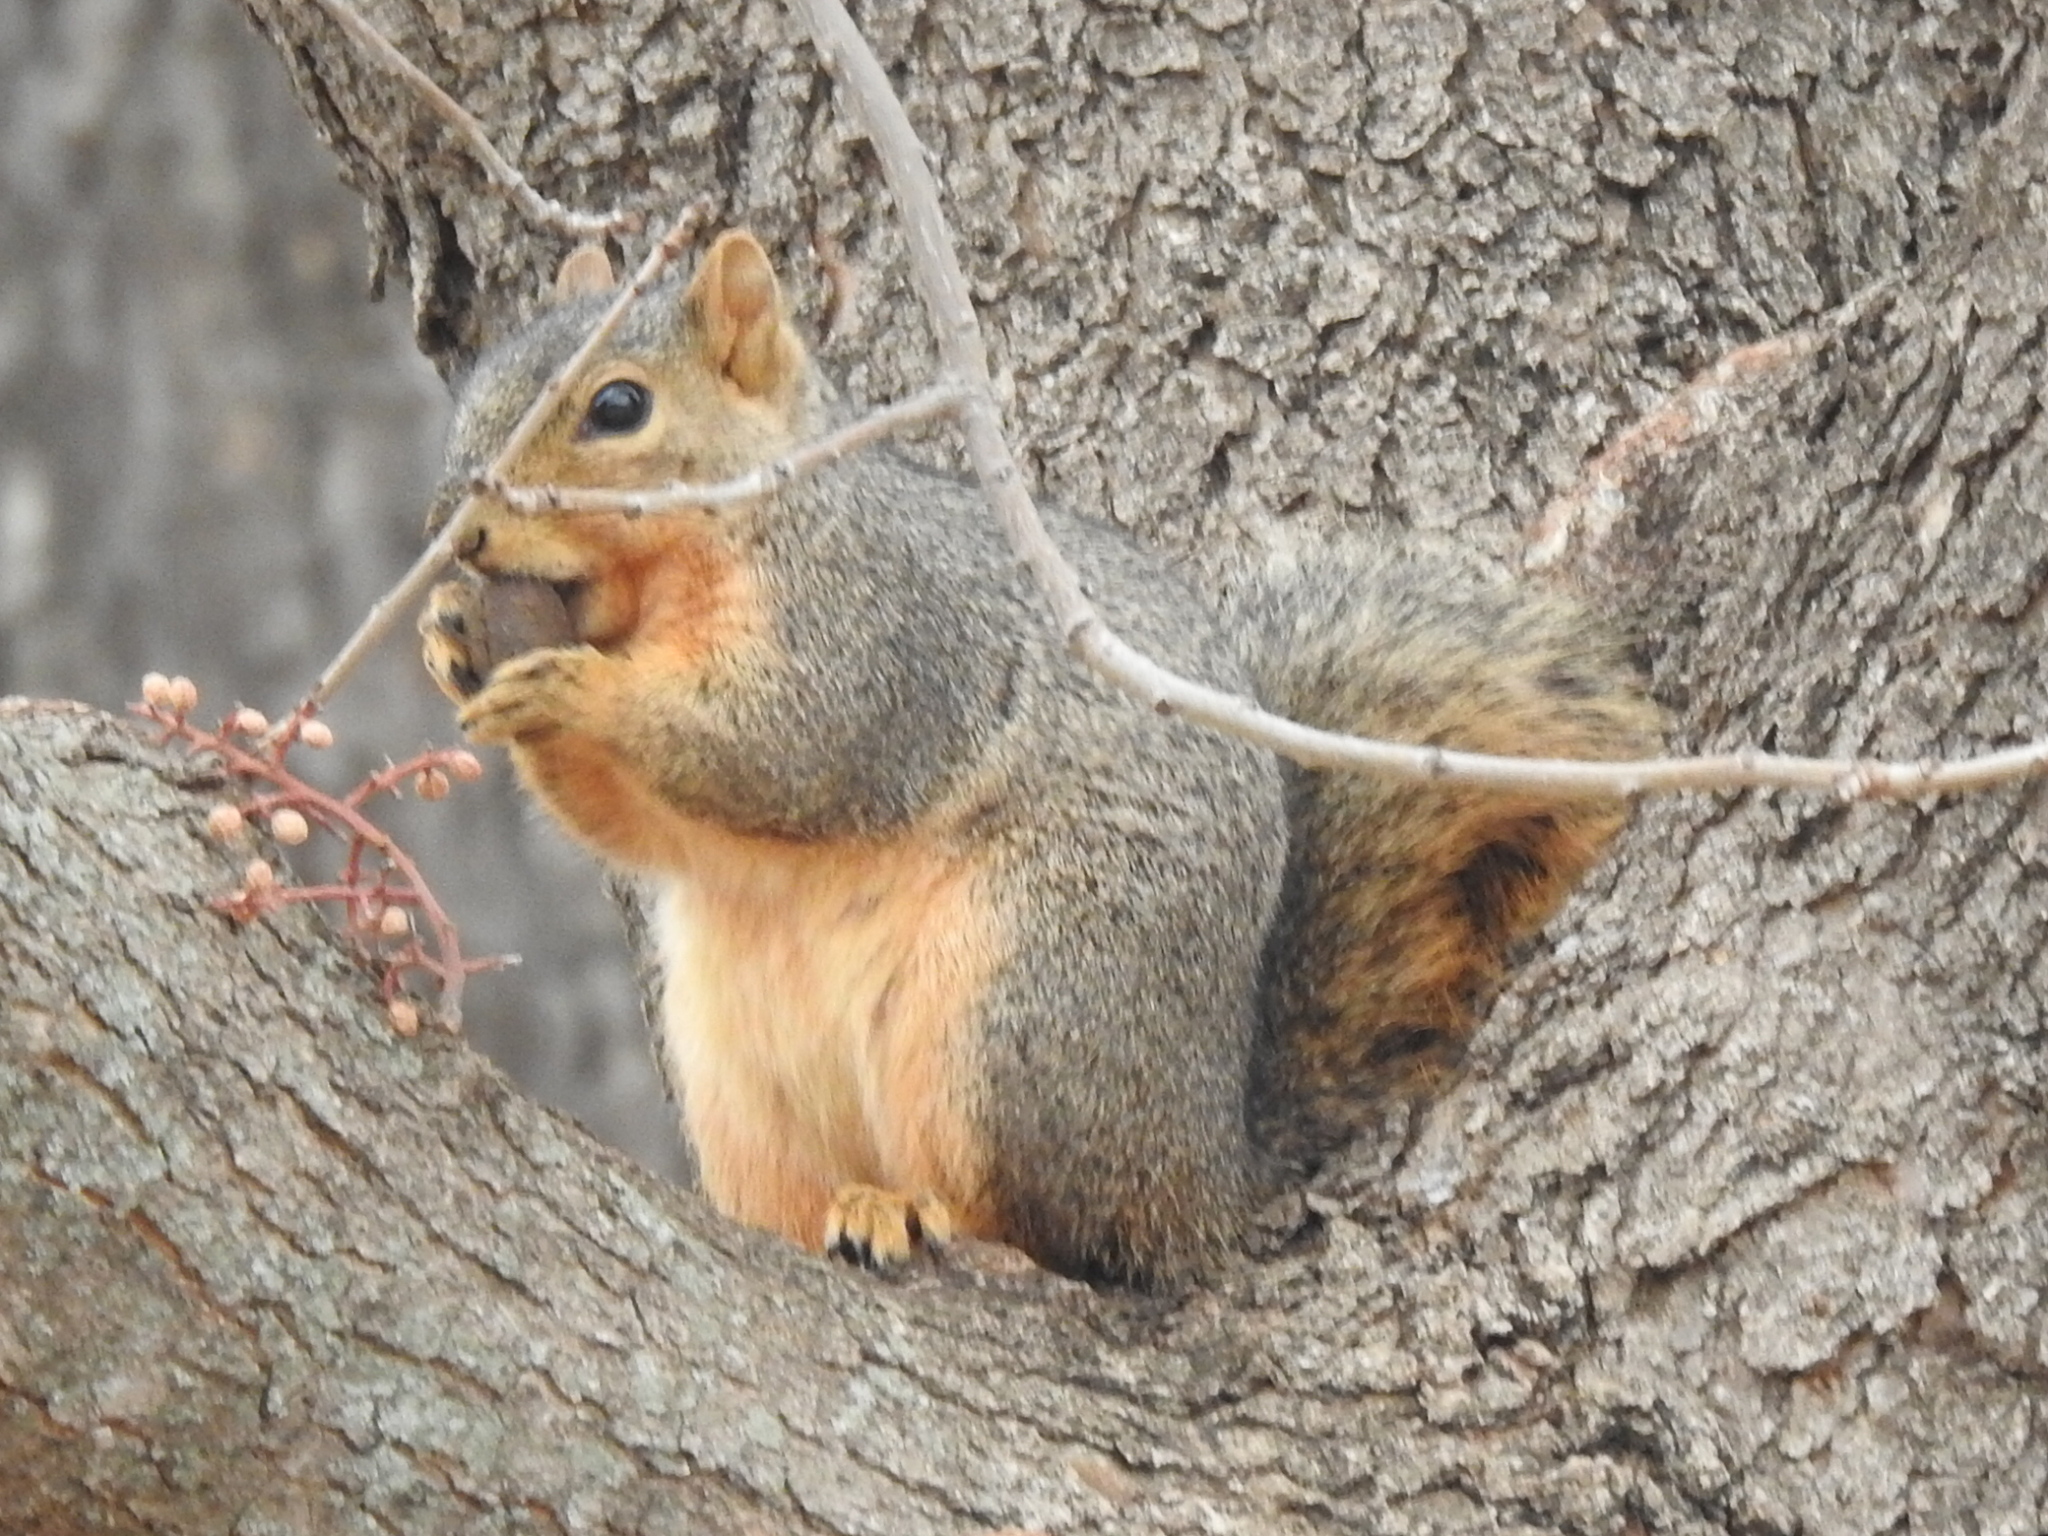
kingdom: Animalia
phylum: Chordata
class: Mammalia
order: Rodentia
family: Sciuridae
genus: Sciurus
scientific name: Sciurus niger
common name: Fox squirrel
